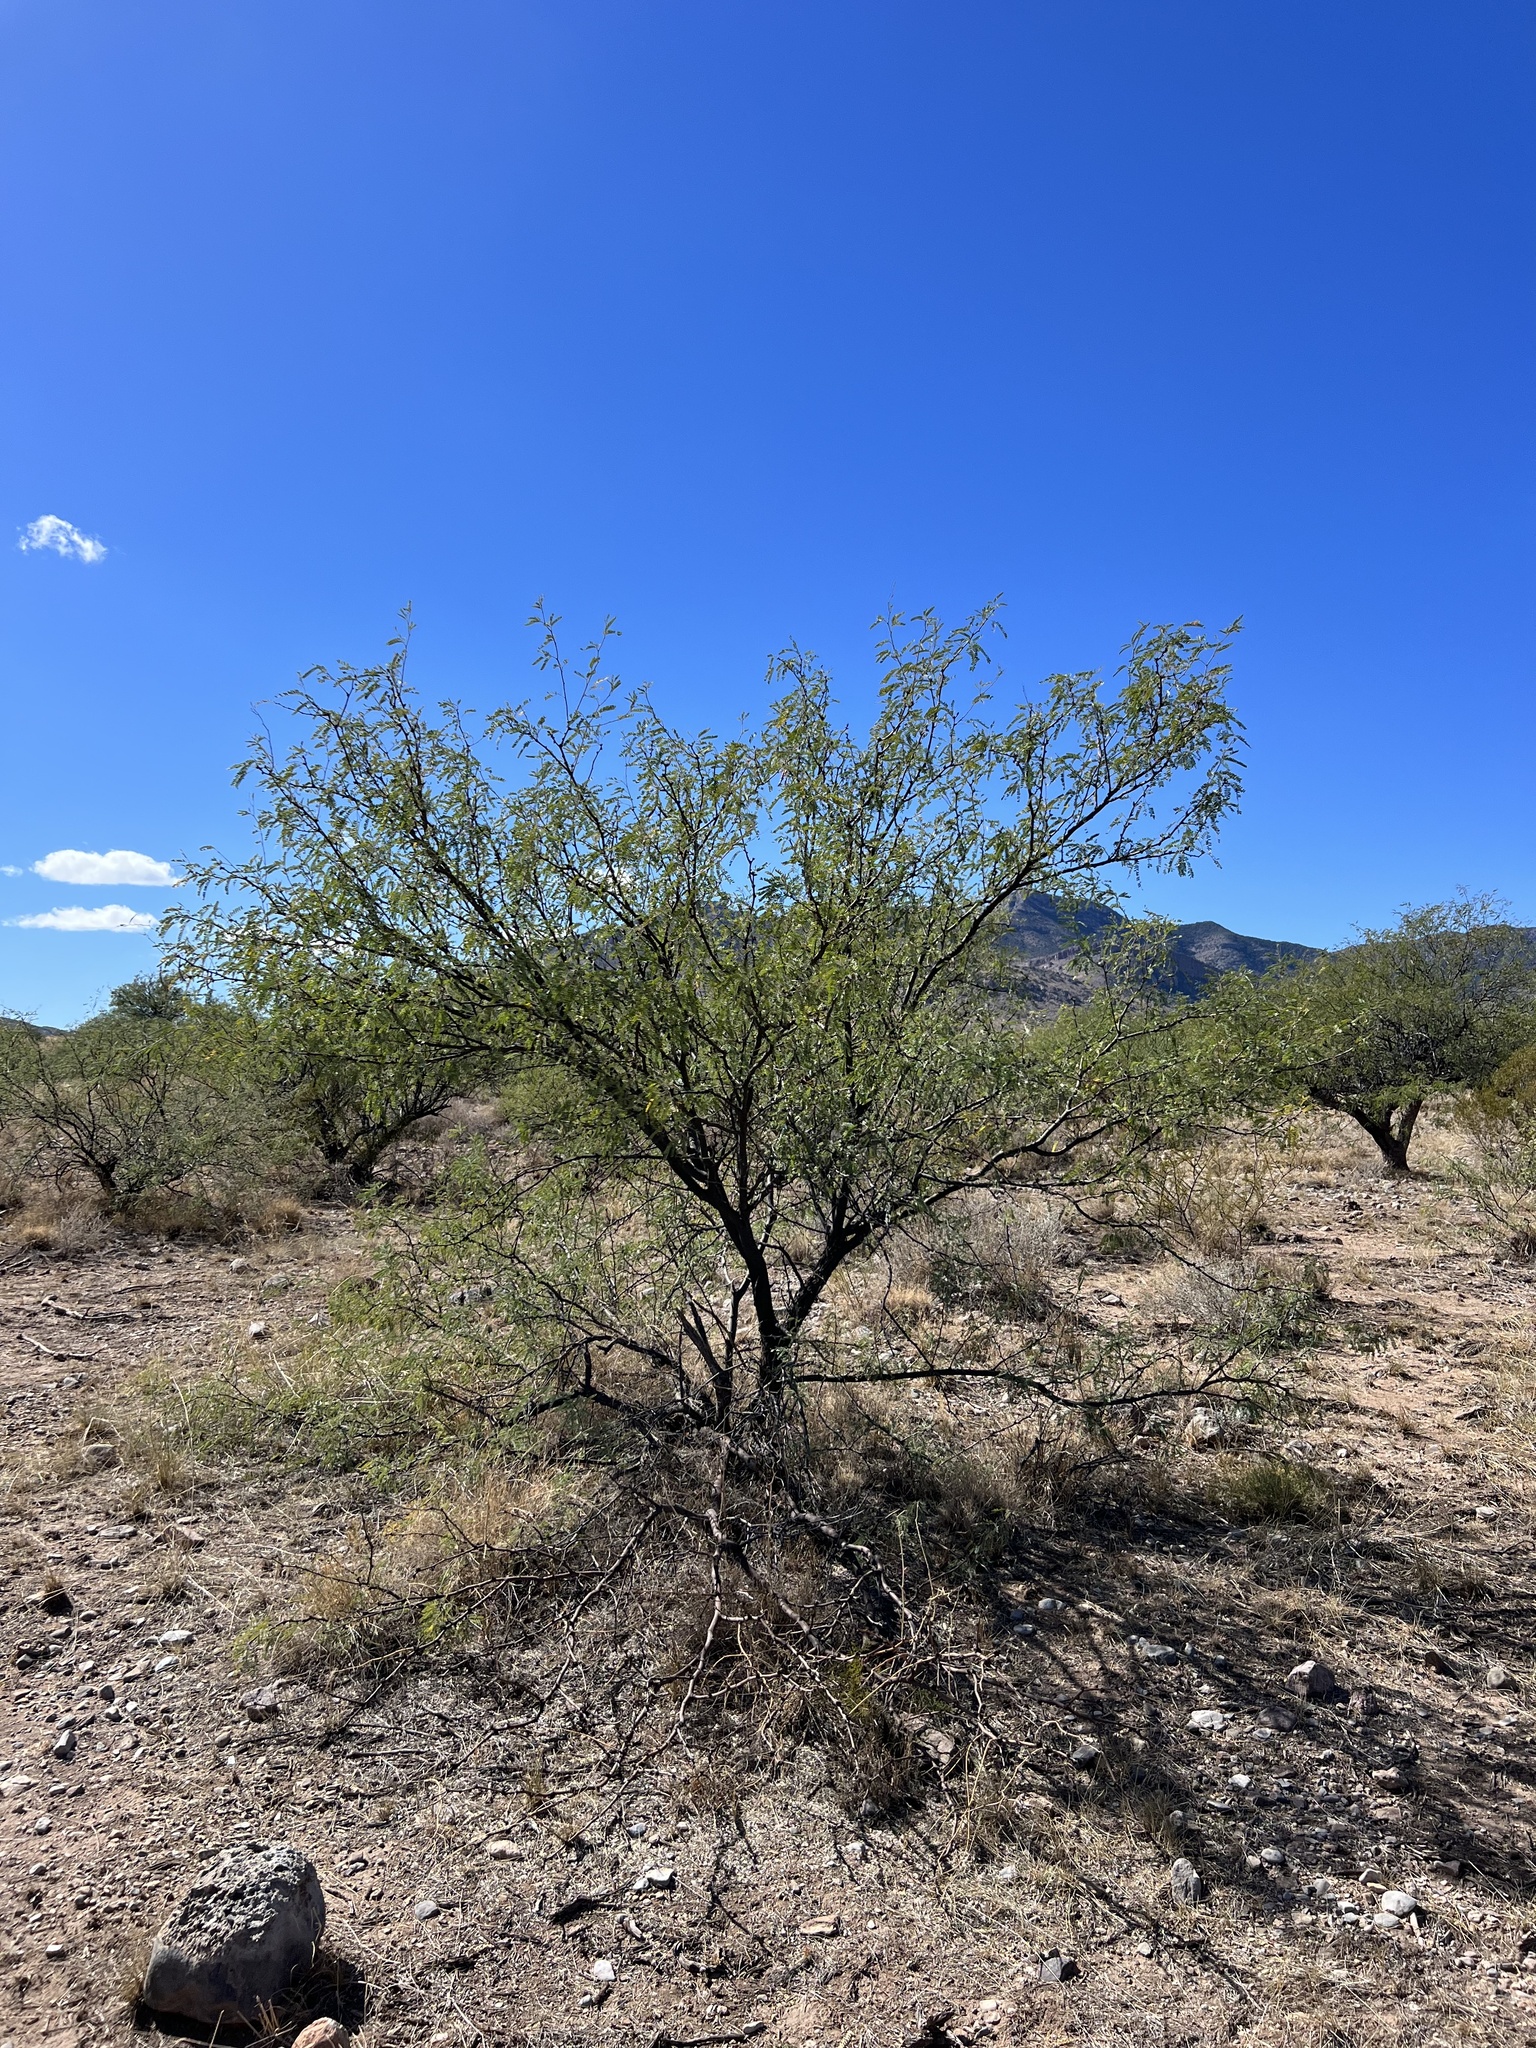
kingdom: Plantae
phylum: Tracheophyta
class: Magnoliopsida
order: Fabales
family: Fabaceae
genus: Prosopis
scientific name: Prosopis velutina
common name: Velvet mesquite
